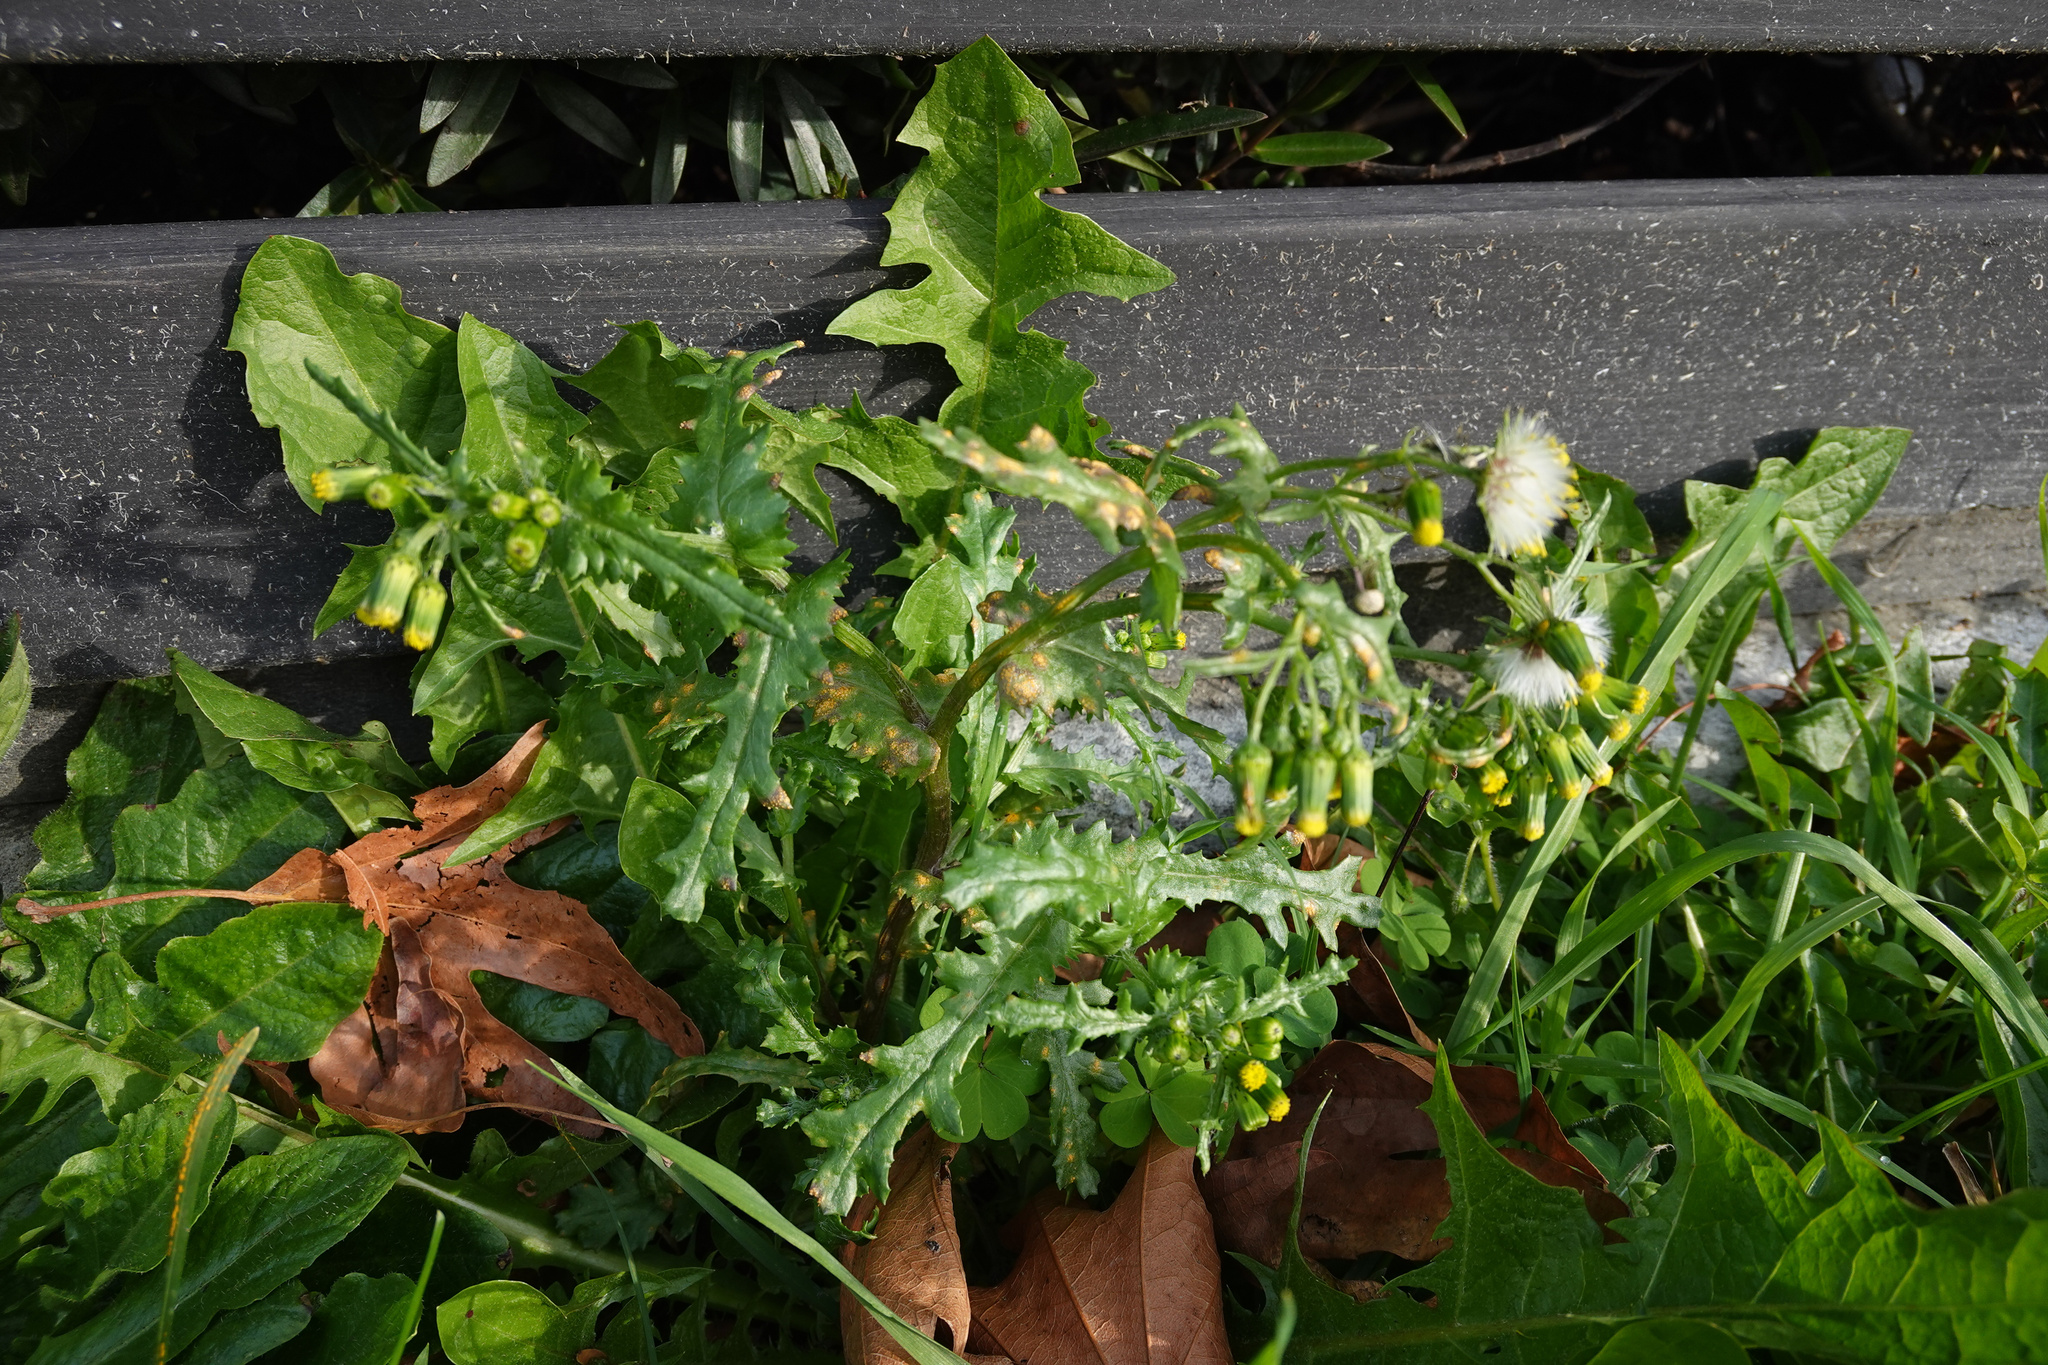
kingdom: Fungi
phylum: Basidiomycota
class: Pucciniomycetes
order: Pucciniales
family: Pucciniaceae
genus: Puccinia
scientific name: Puccinia lagenophorae
